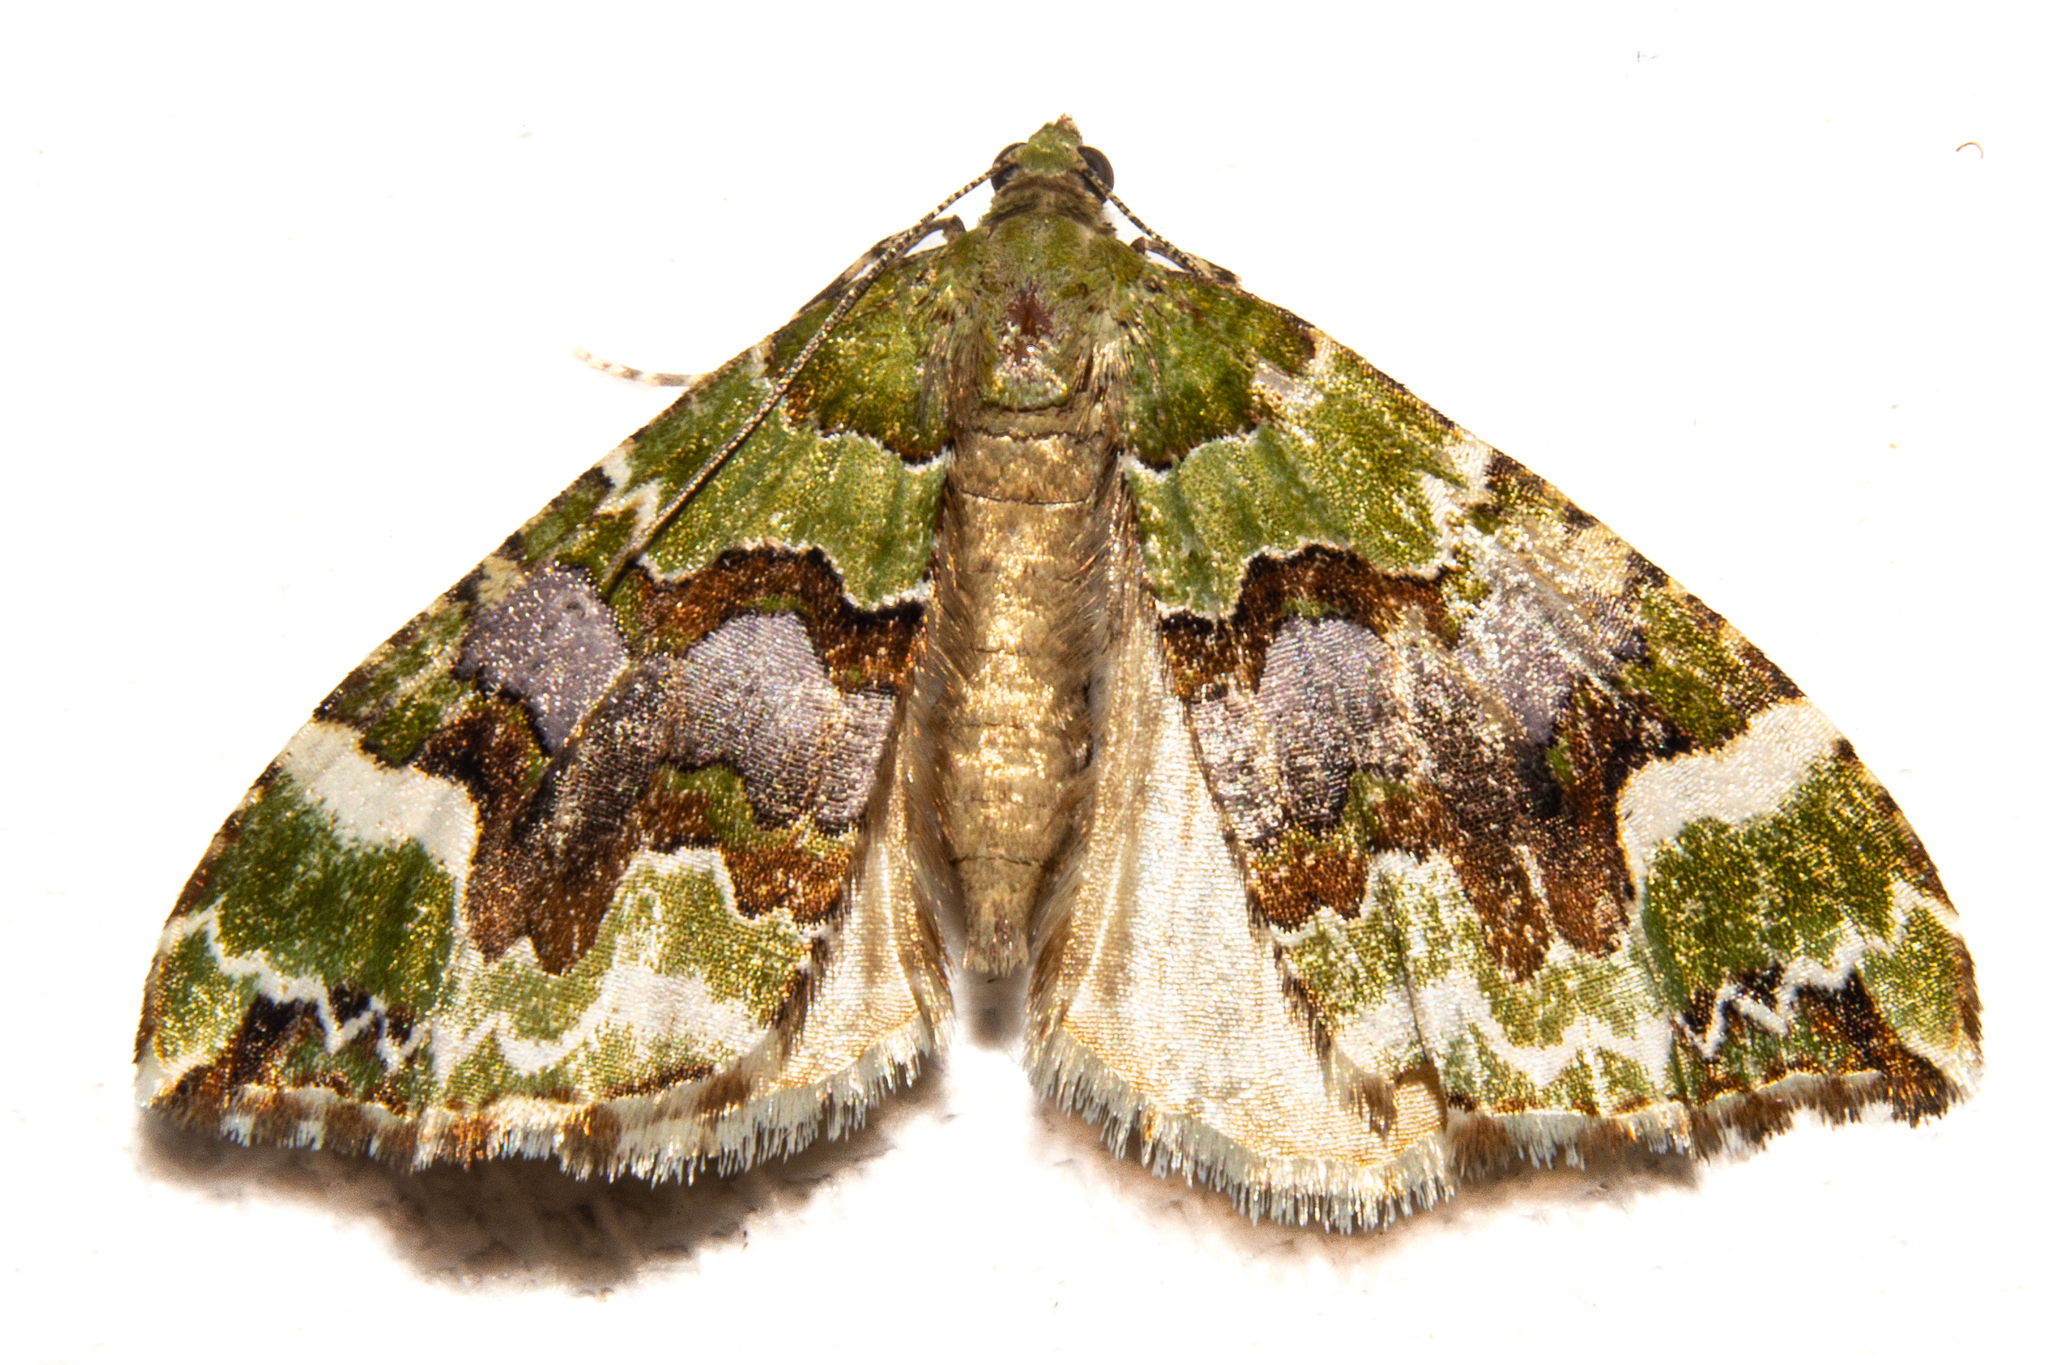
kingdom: Animalia
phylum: Arthropoda
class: Insecta
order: Lepidoptera
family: Geometridae
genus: Hydriomena
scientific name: Hydriomena purpurifera
